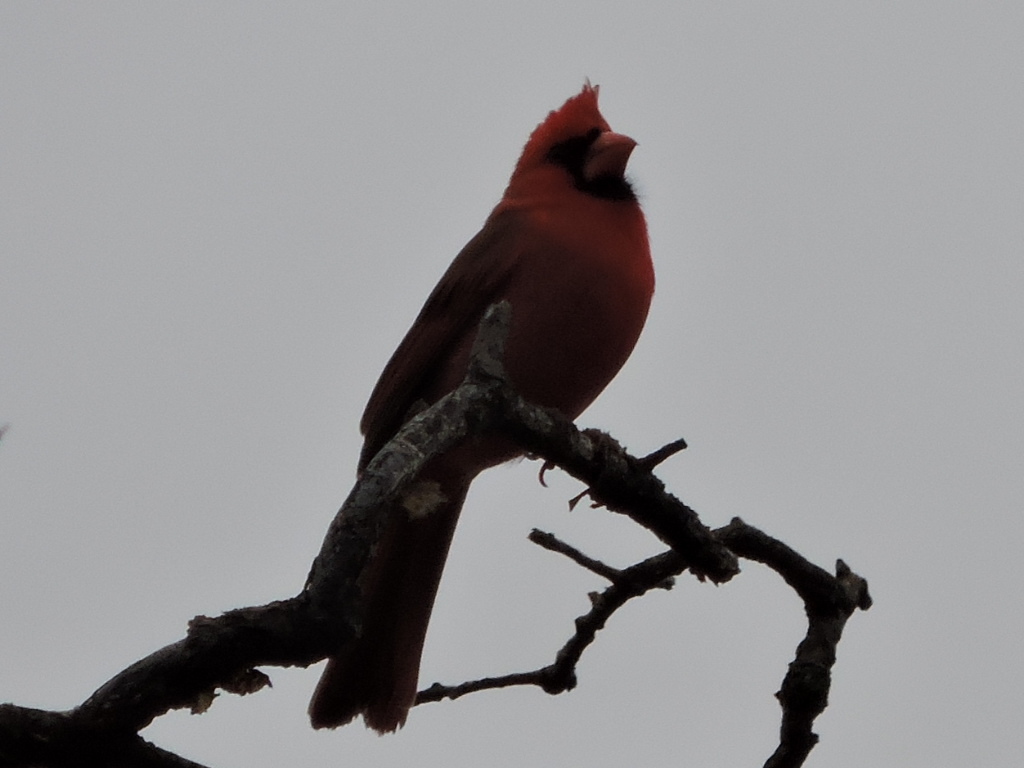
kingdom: Animalia
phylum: Chordata
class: Aves
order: Passeriformes
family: Cardinalidae
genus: Cardinalis
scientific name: Cardinalis cardinalis
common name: Northern cardinal
